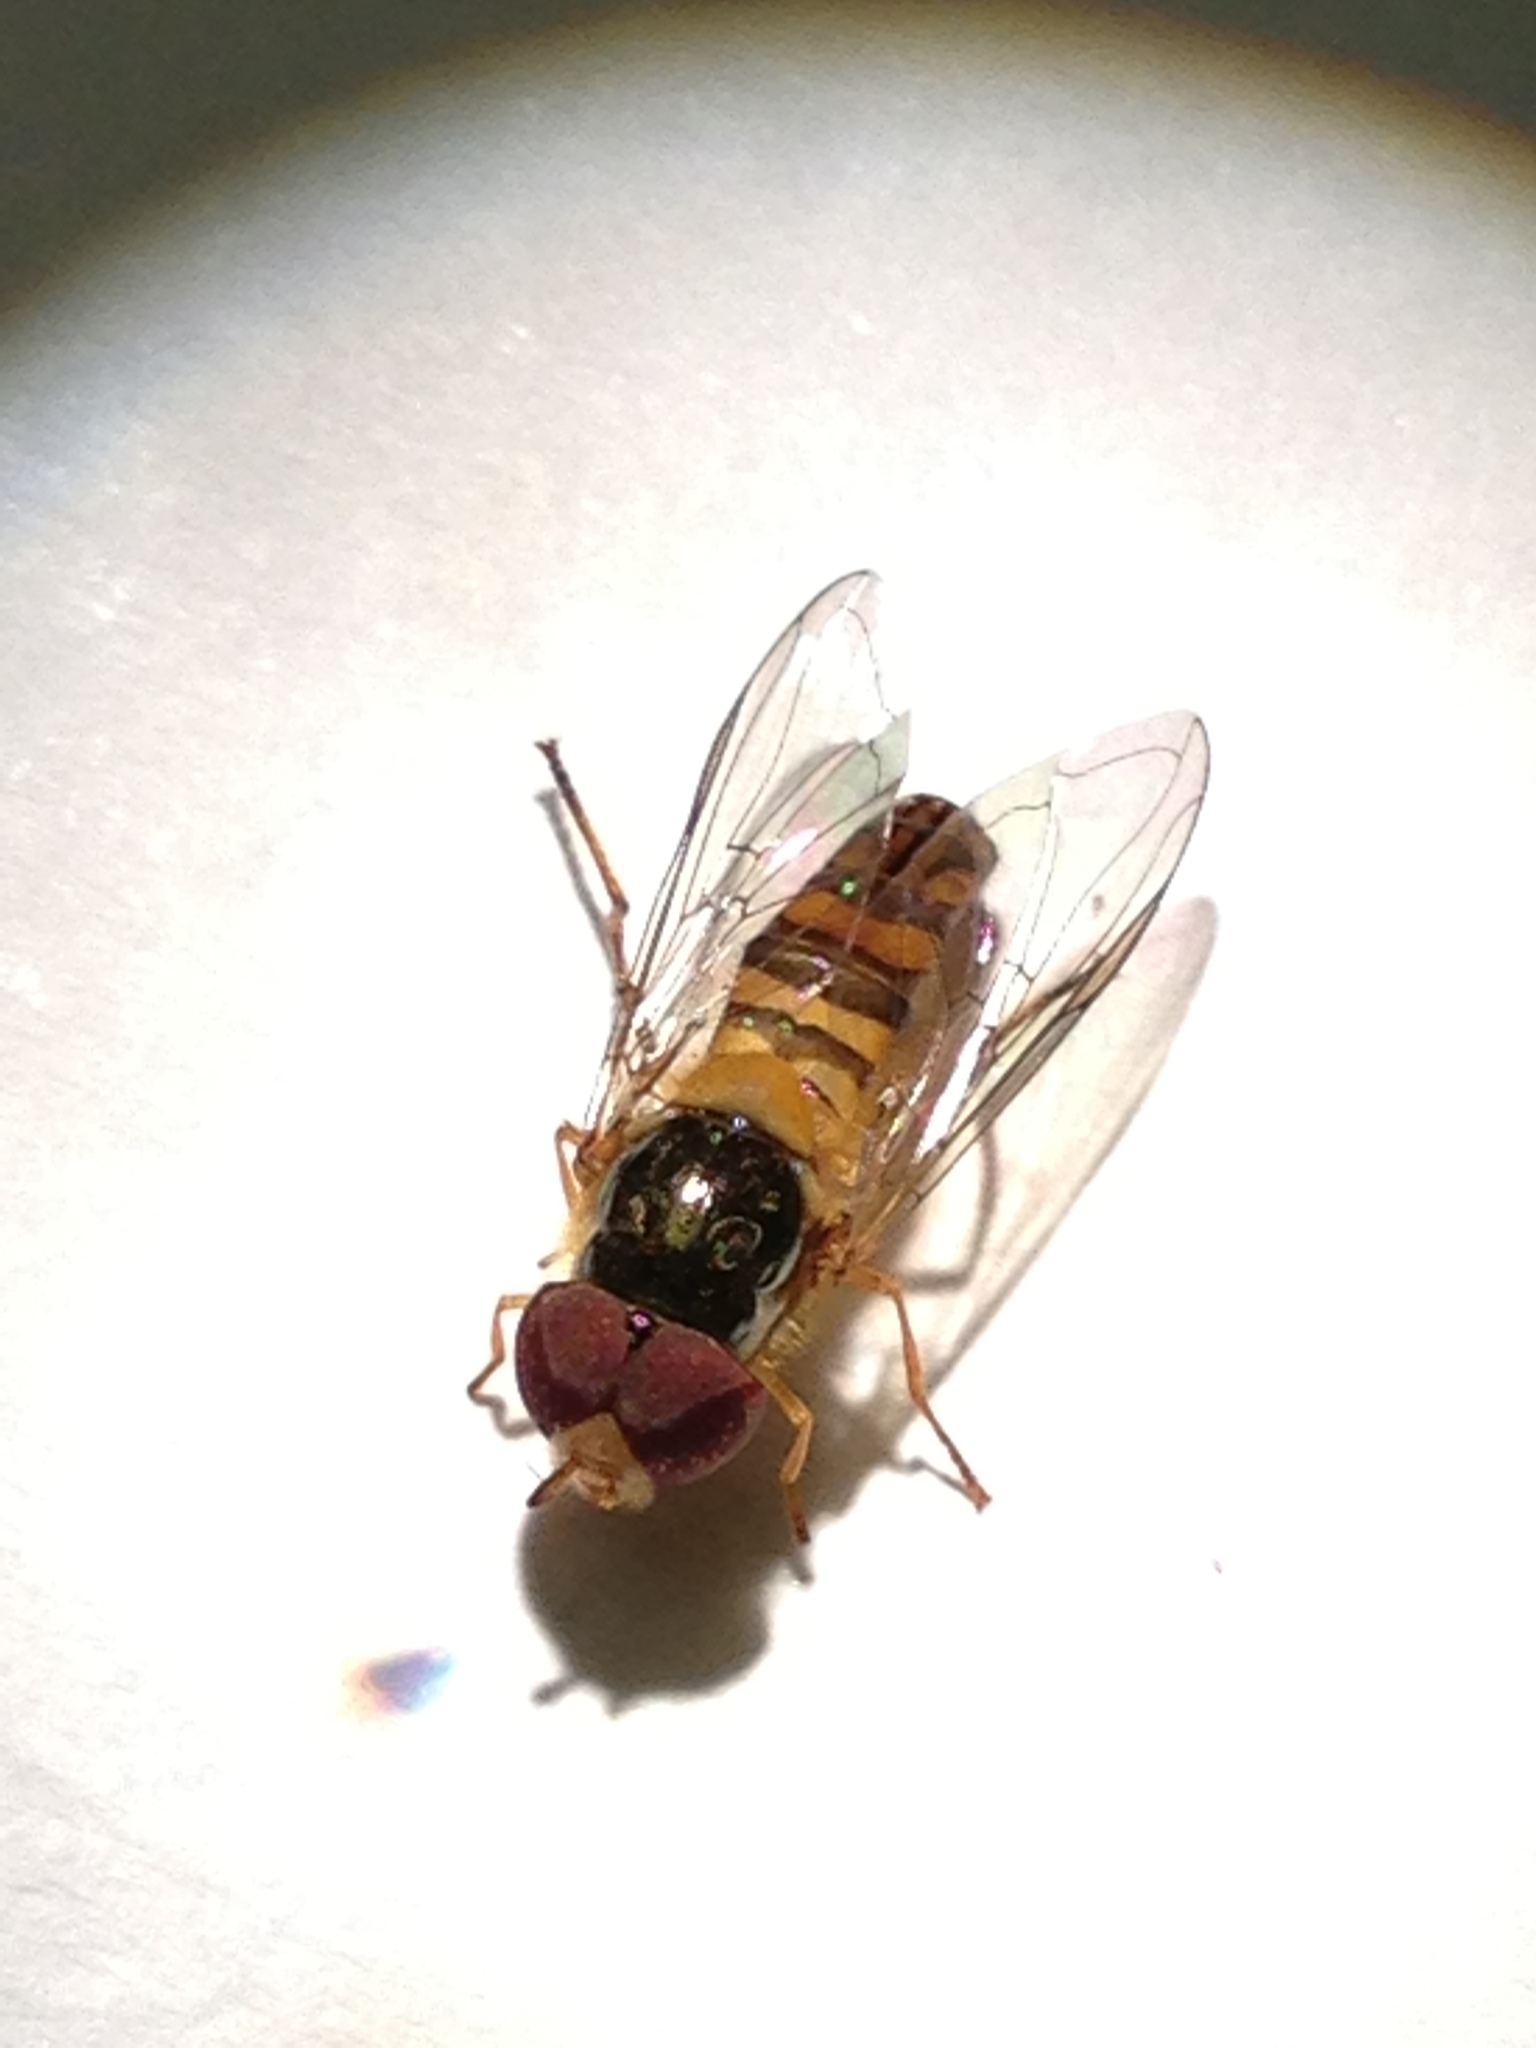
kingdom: Animalia
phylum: Arthropoda
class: Insecta
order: Diptera
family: Syrphidae
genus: Allograpta
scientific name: Allograpta obliqua
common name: Common oblique syrphid
